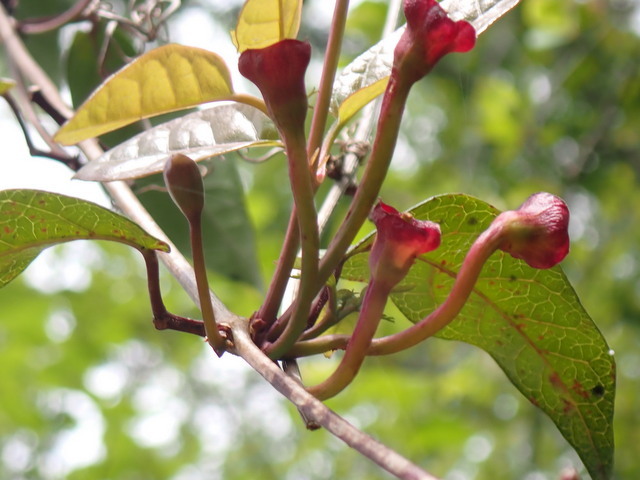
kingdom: Plantae
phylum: Tracheophyta
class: Magnoliopsida
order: Lamiales
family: Bignoniaceae
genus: Bignonia
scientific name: Bignonia capreolata
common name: Crossvine
